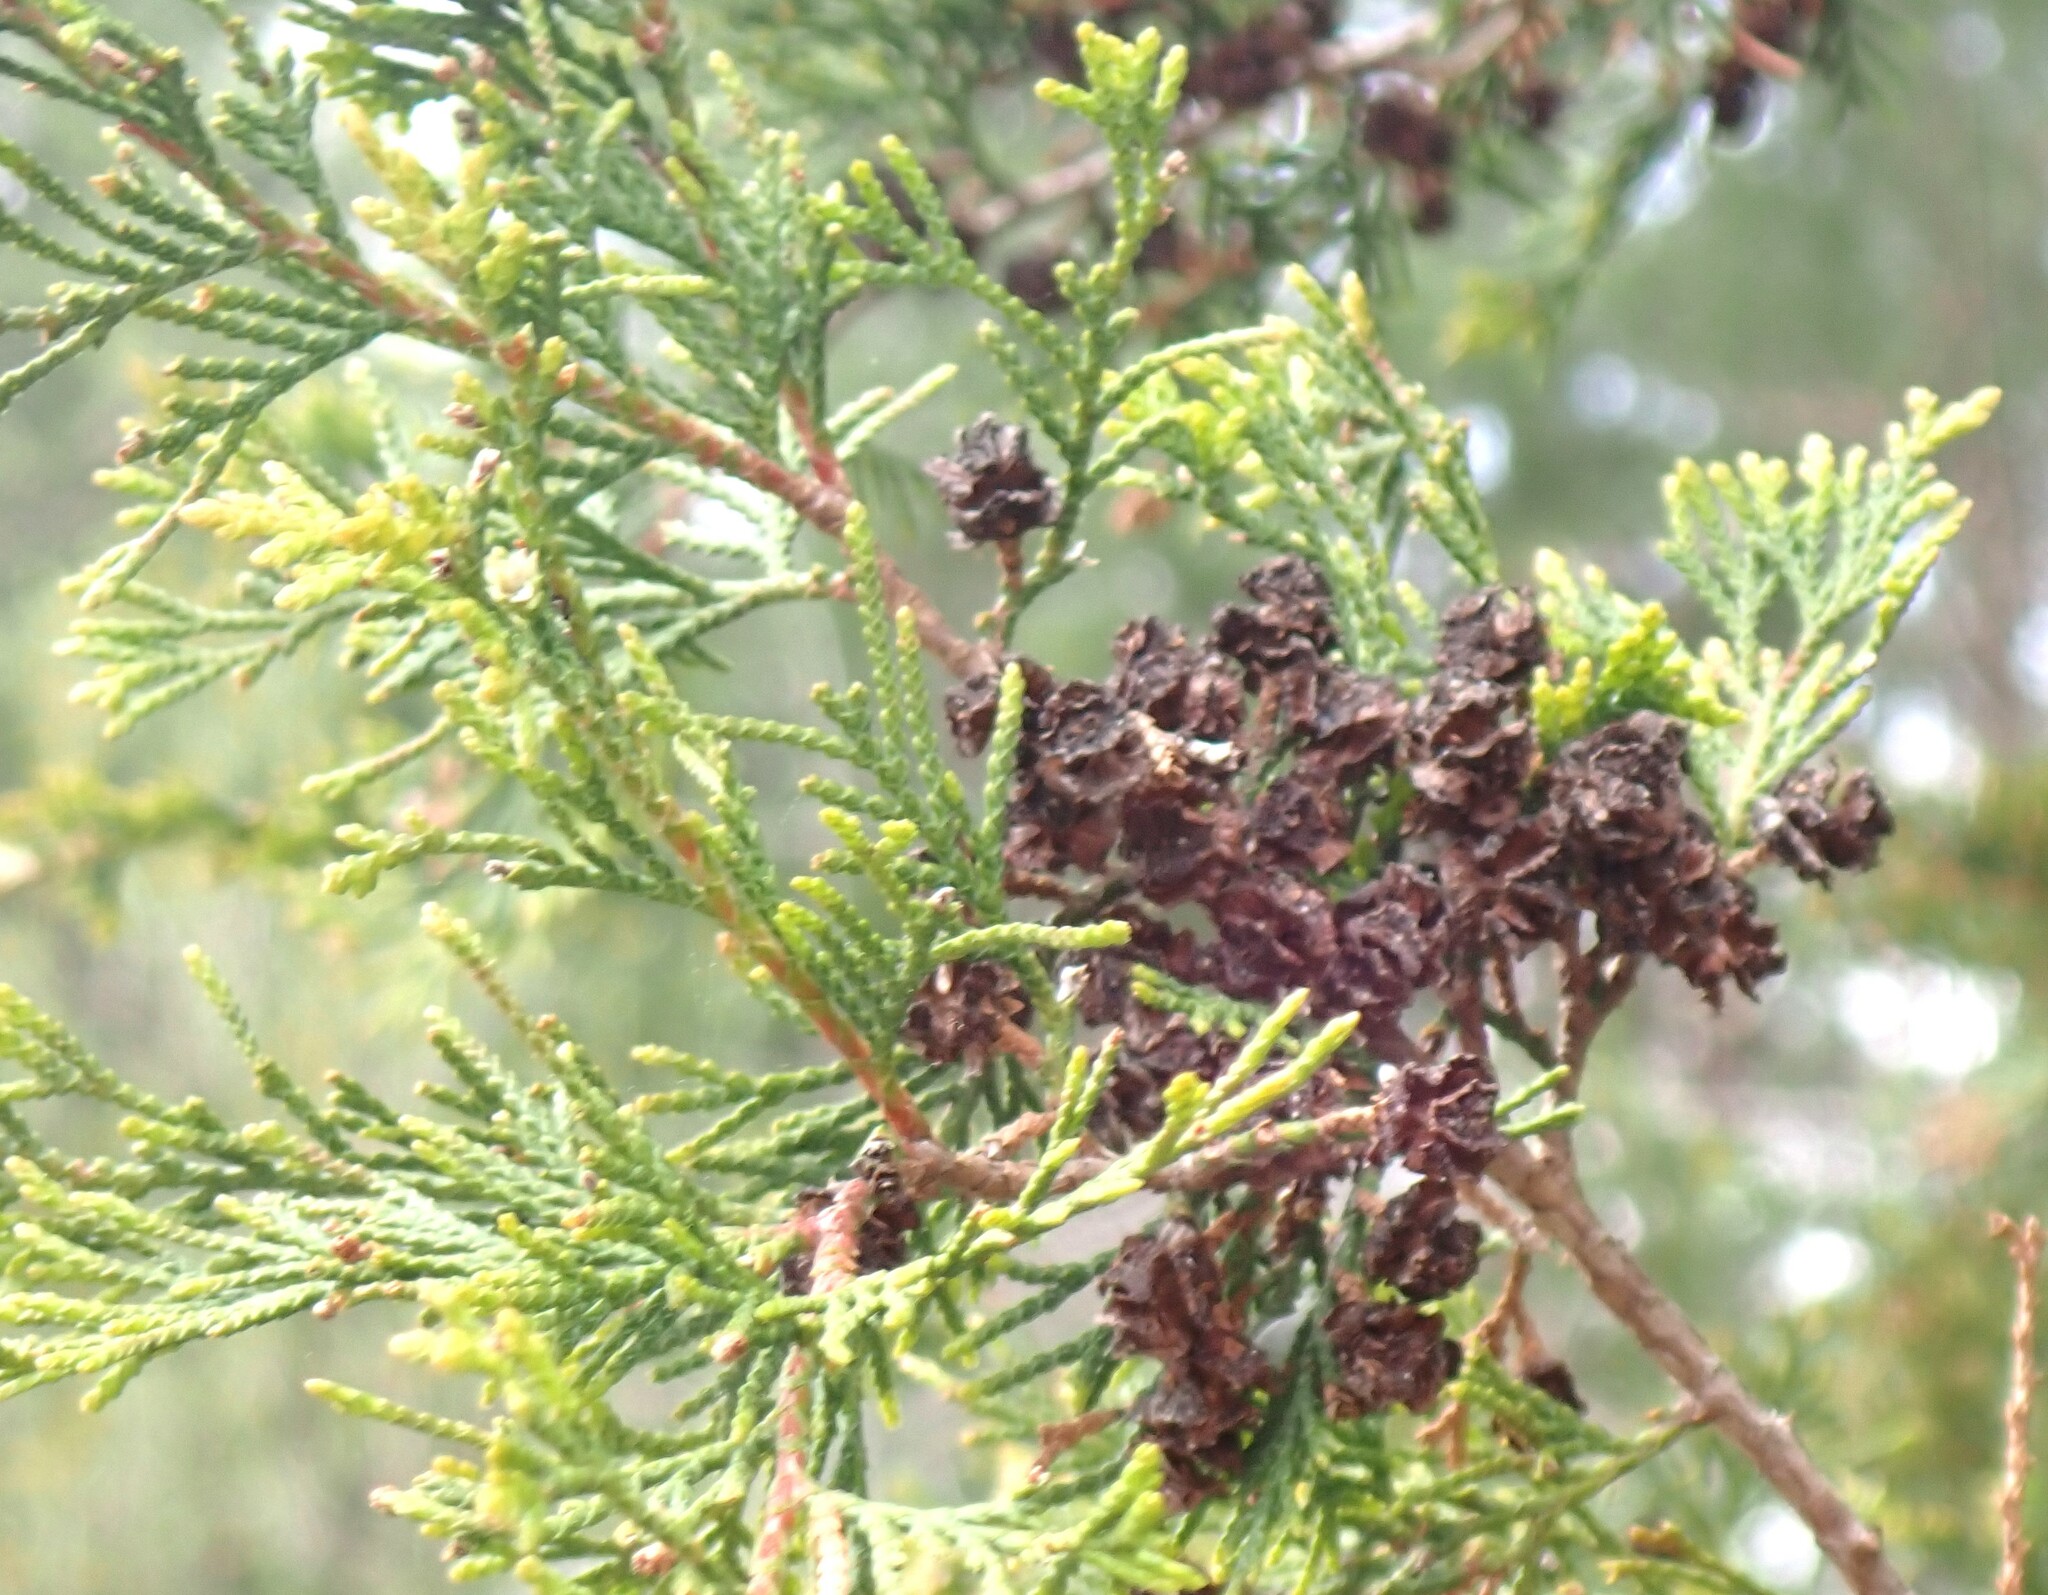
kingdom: Plantae
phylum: Tracheophyta
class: Pinopsida
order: Pinales
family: Cupressaceae
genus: Chamaecyparis
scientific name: Chamaecyparis thyoides
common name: Atlantic white cedar
